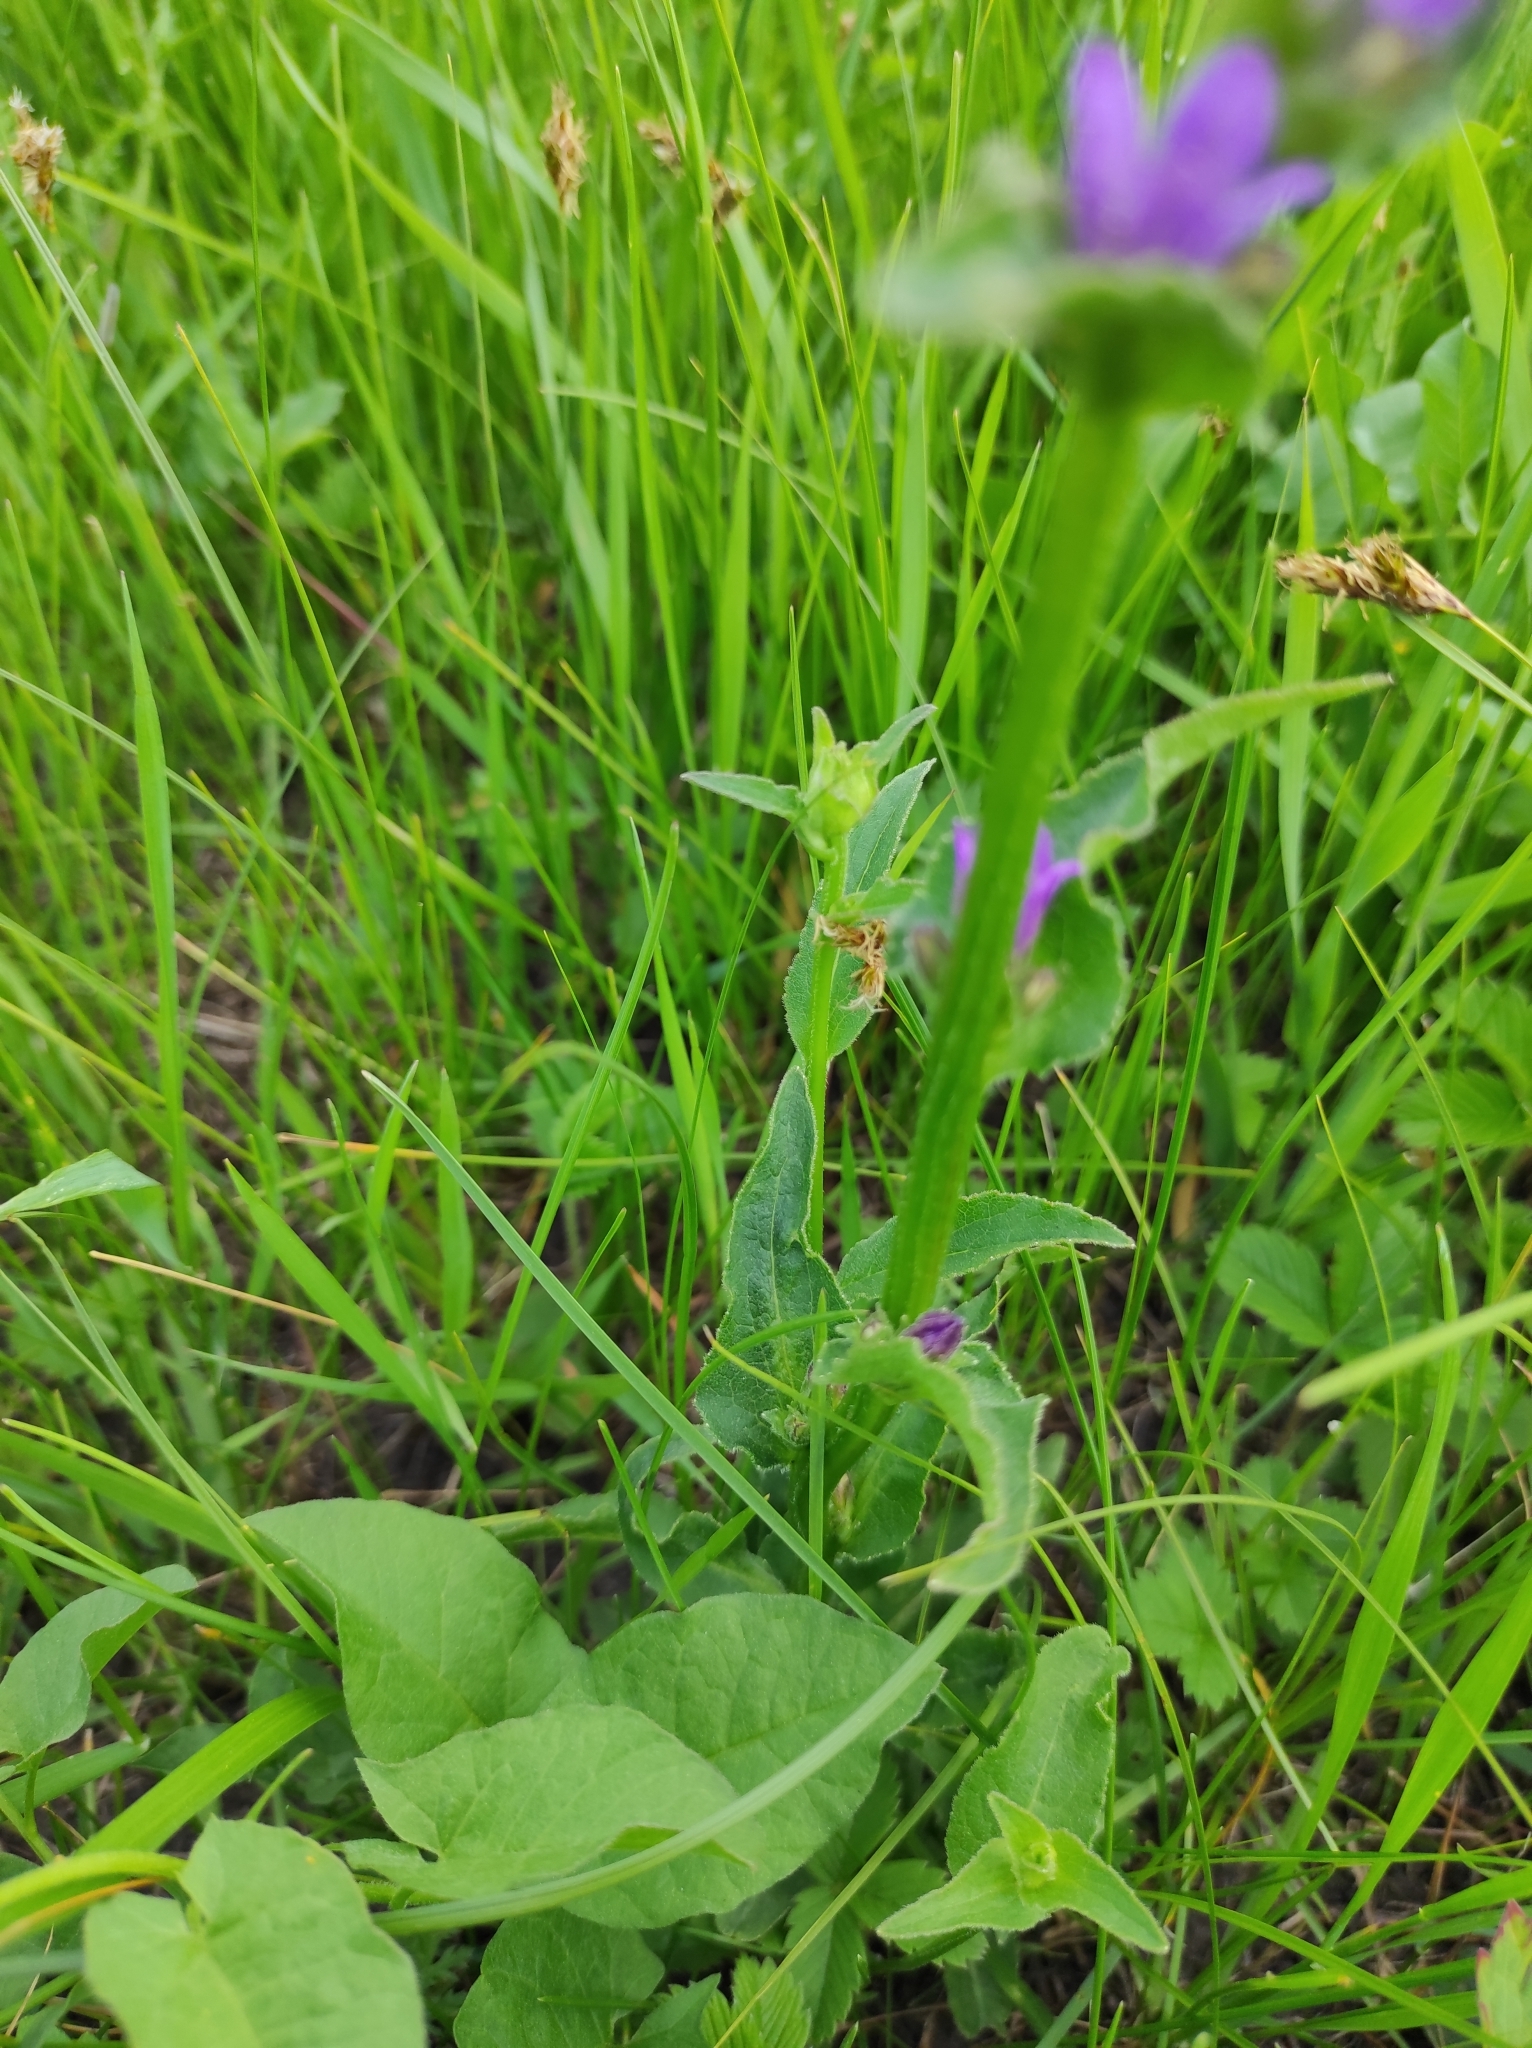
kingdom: Plantae
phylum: Tracheophyta
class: Magnoliopsida
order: Asterales
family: Campanulaceae
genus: Campanula
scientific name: Campanula glomerata
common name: Clustered bellflower
